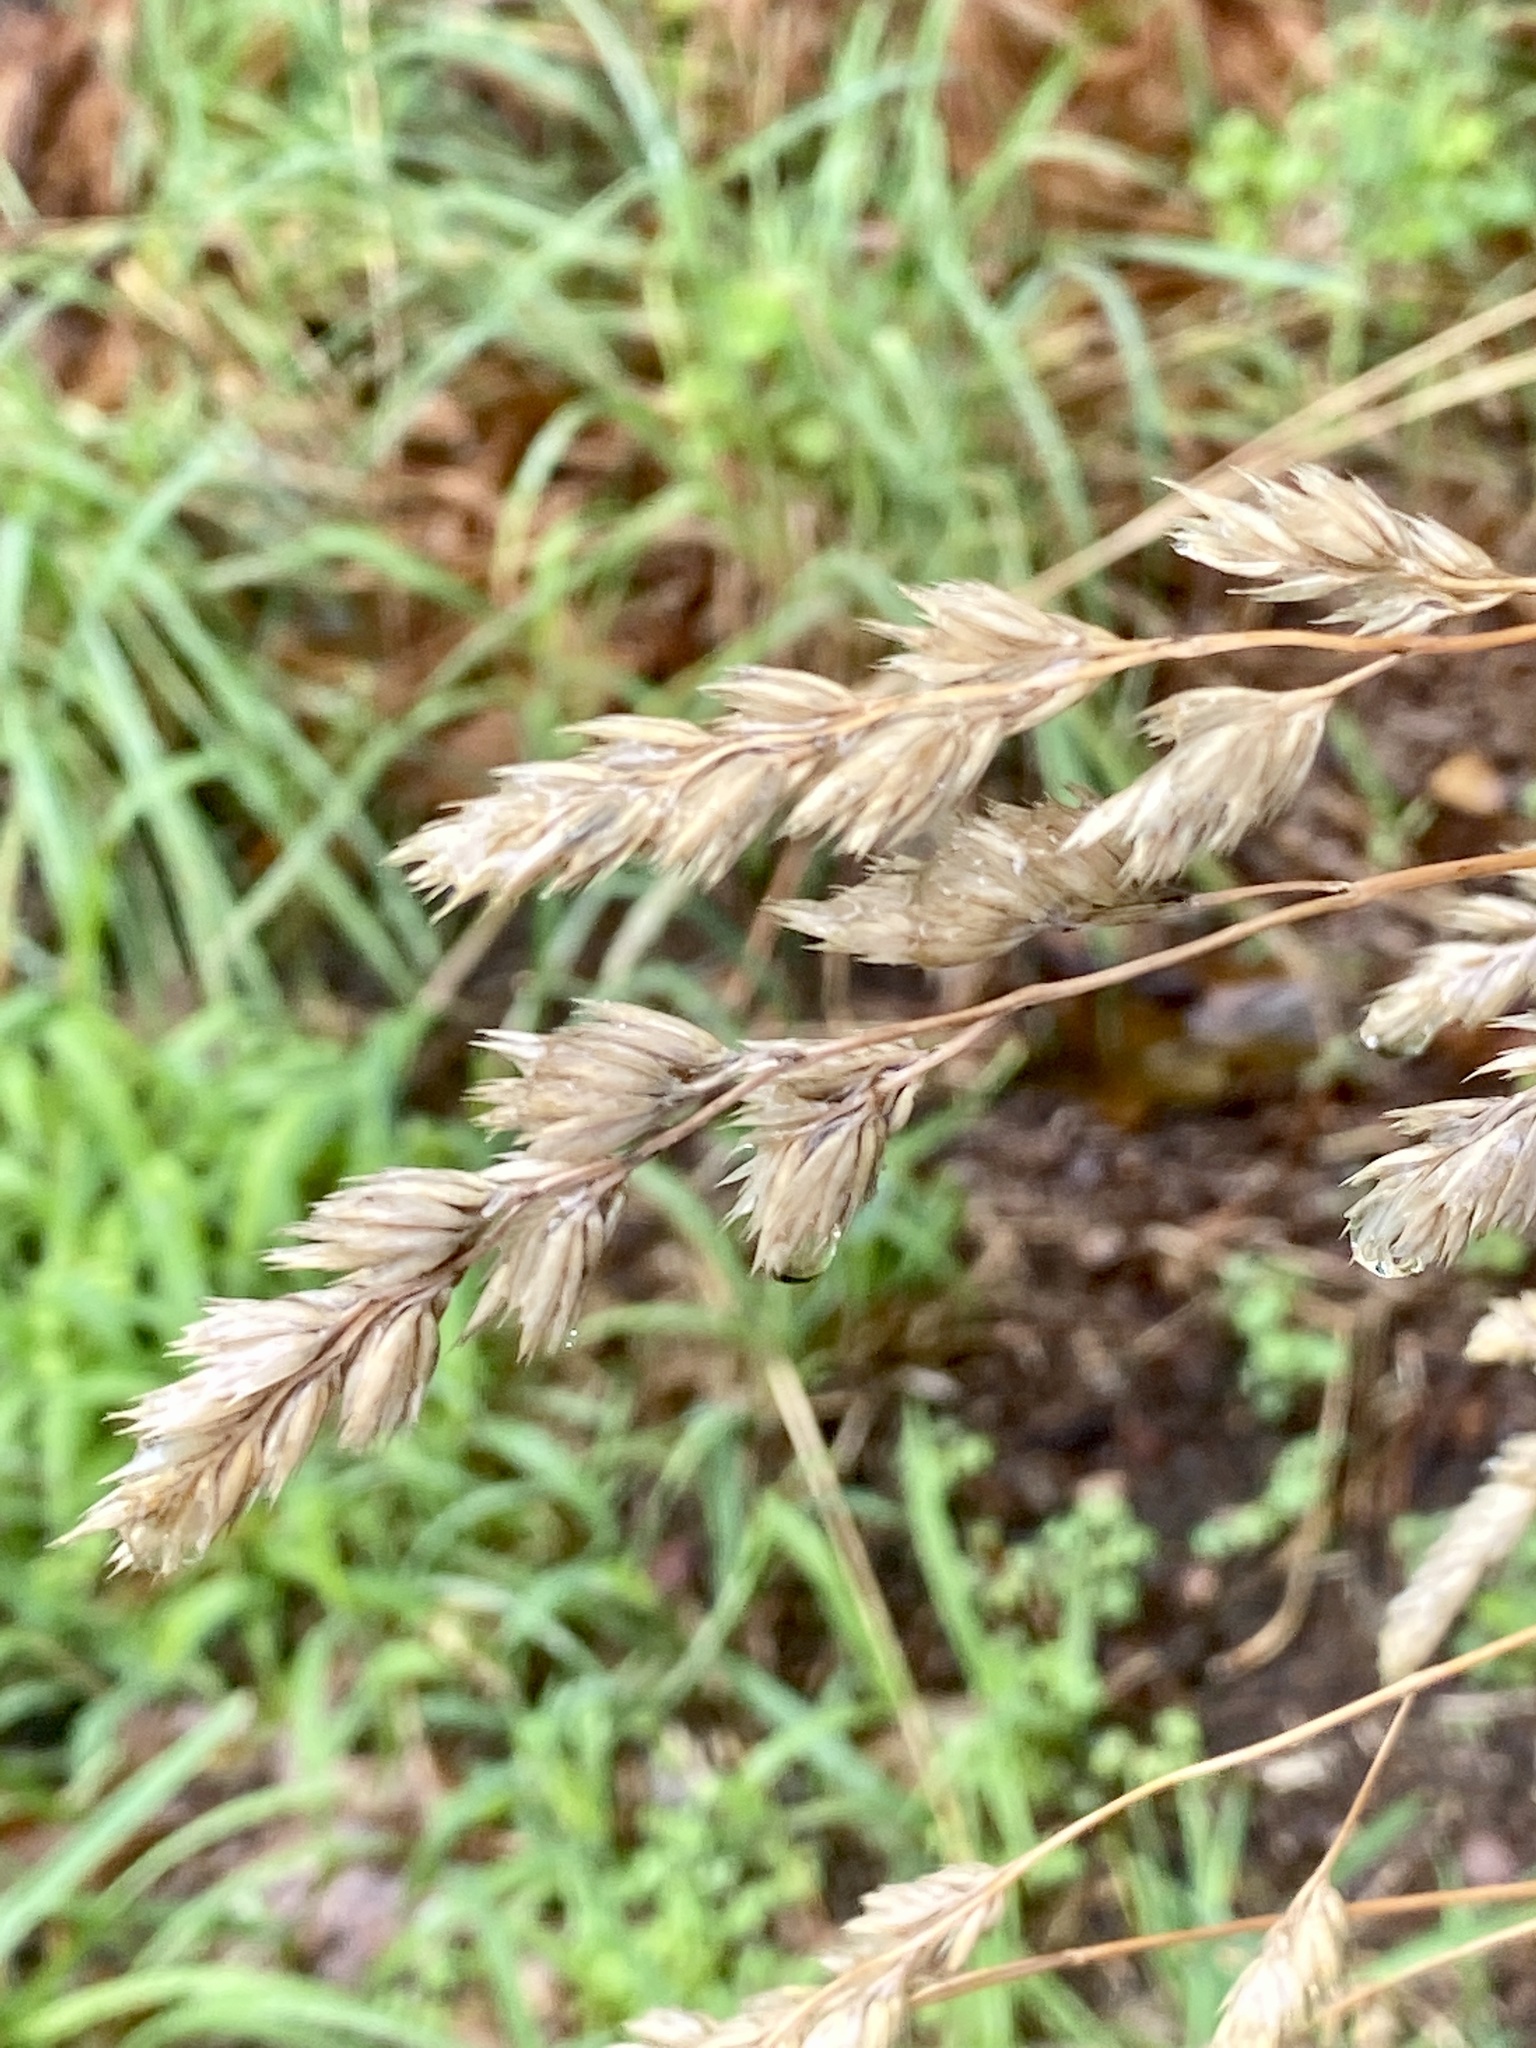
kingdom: Plantae
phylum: Tracheophyta
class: Liliopsida
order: Poales
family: Poaceae
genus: Dactylis
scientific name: Dactylis glomerata
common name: Orchardgrass
